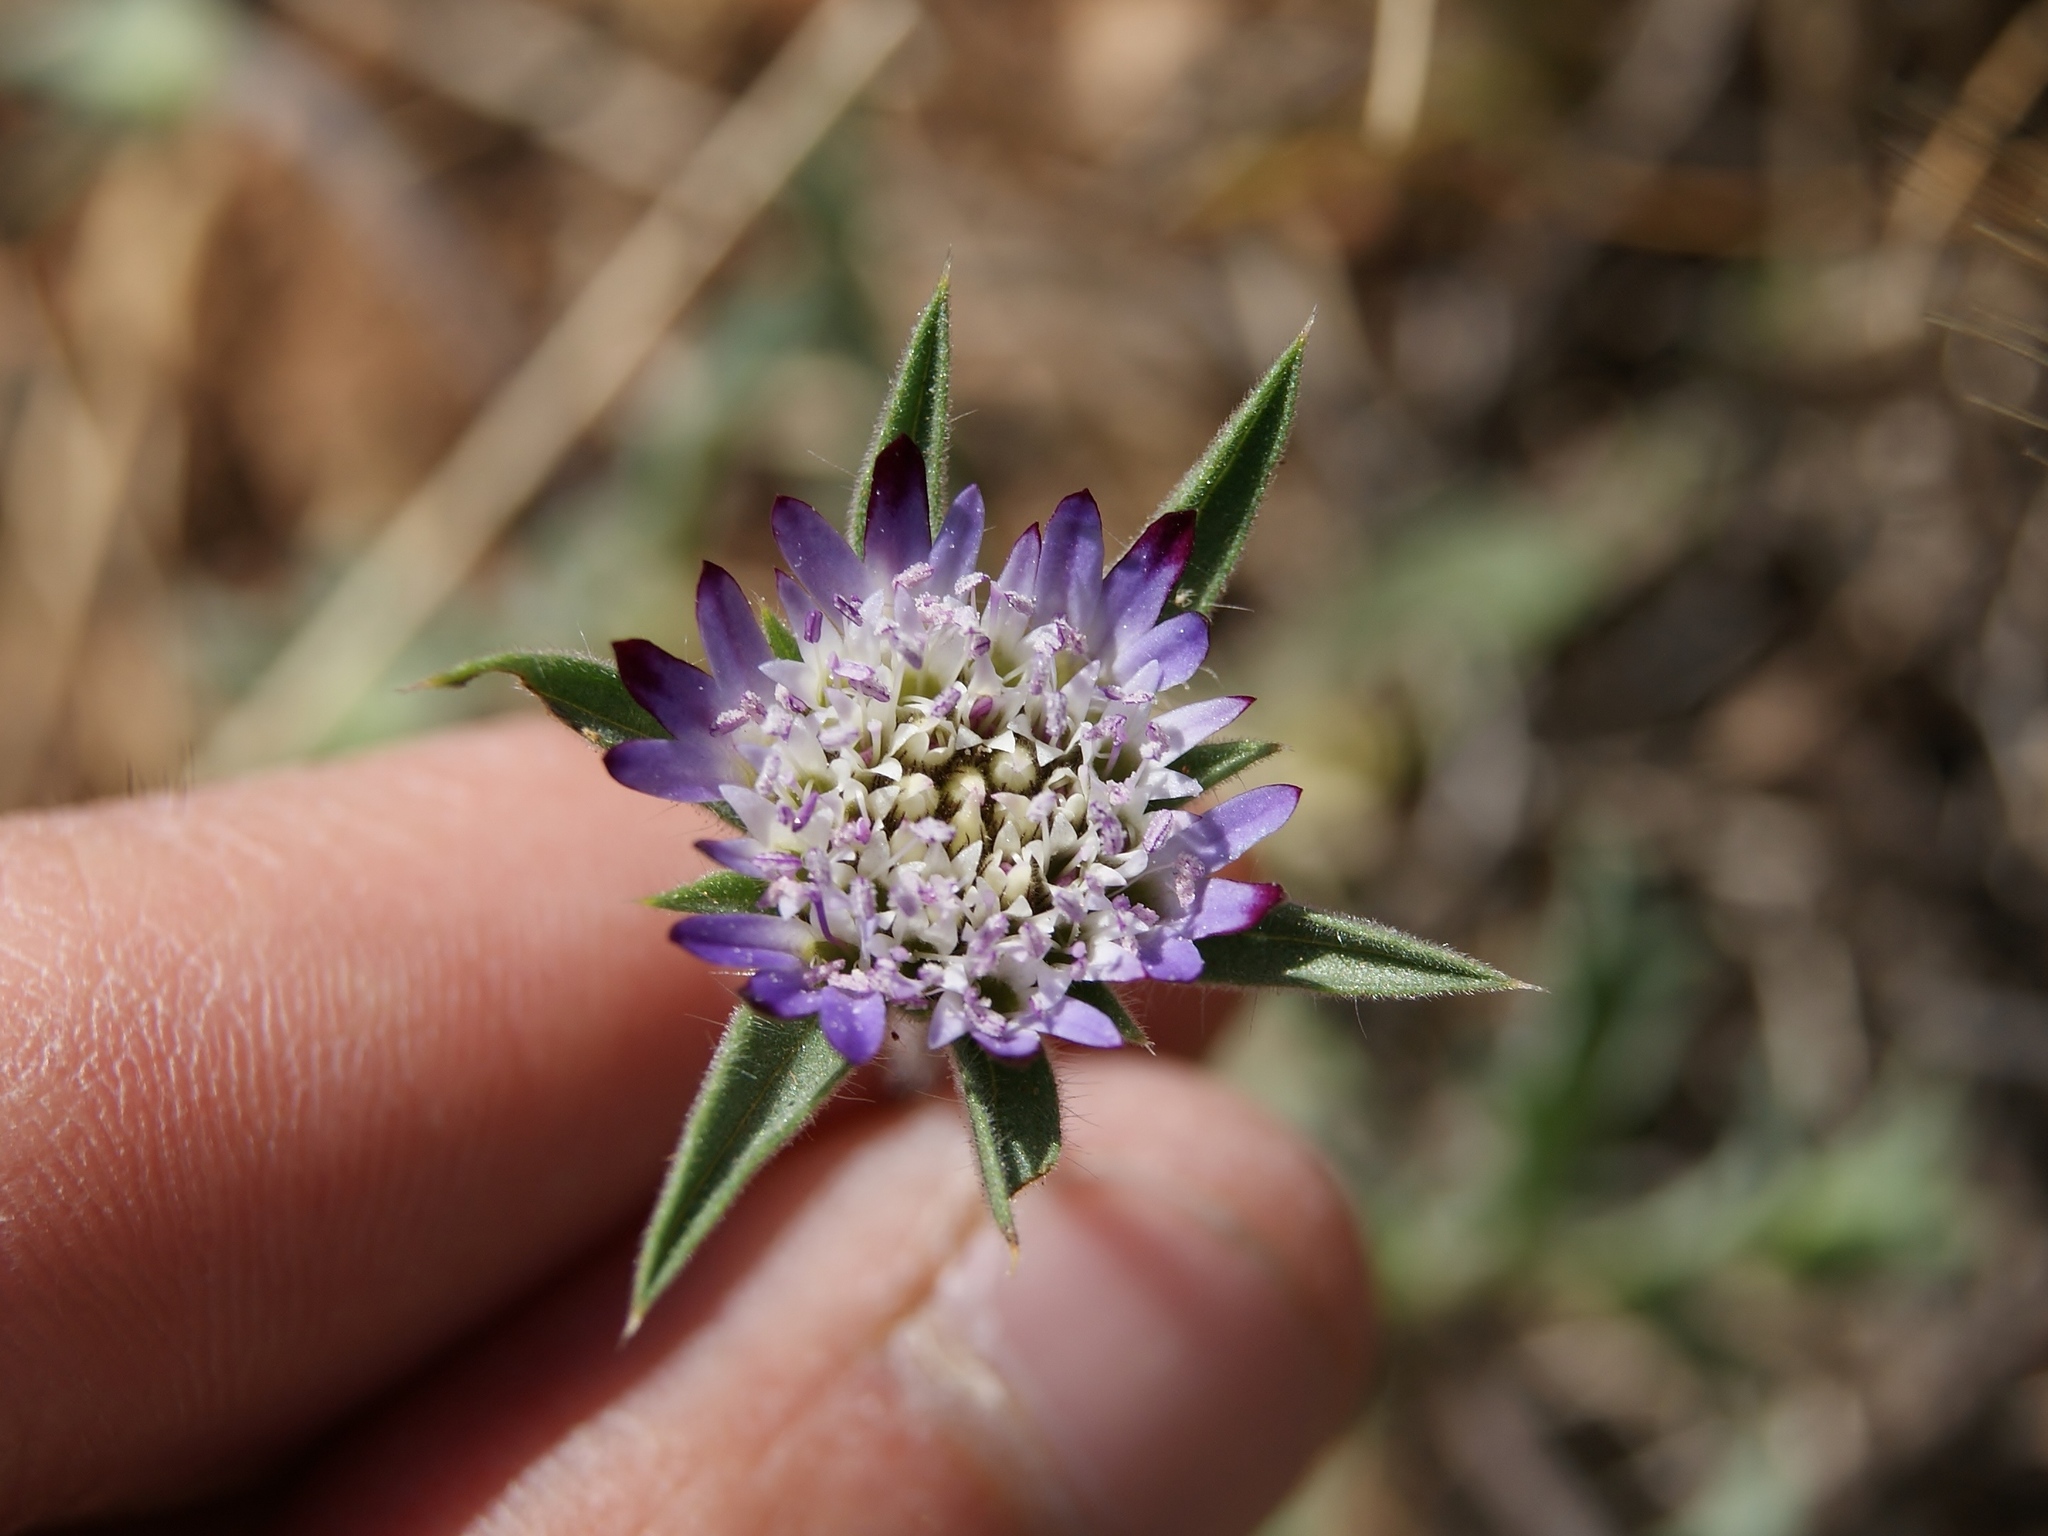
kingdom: Plantae
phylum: Tracheophyta
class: Magnoliopsida
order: Dipsacales
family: Caprifoliaceae
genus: Pterocephalus
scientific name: Pterocephalus brevis
